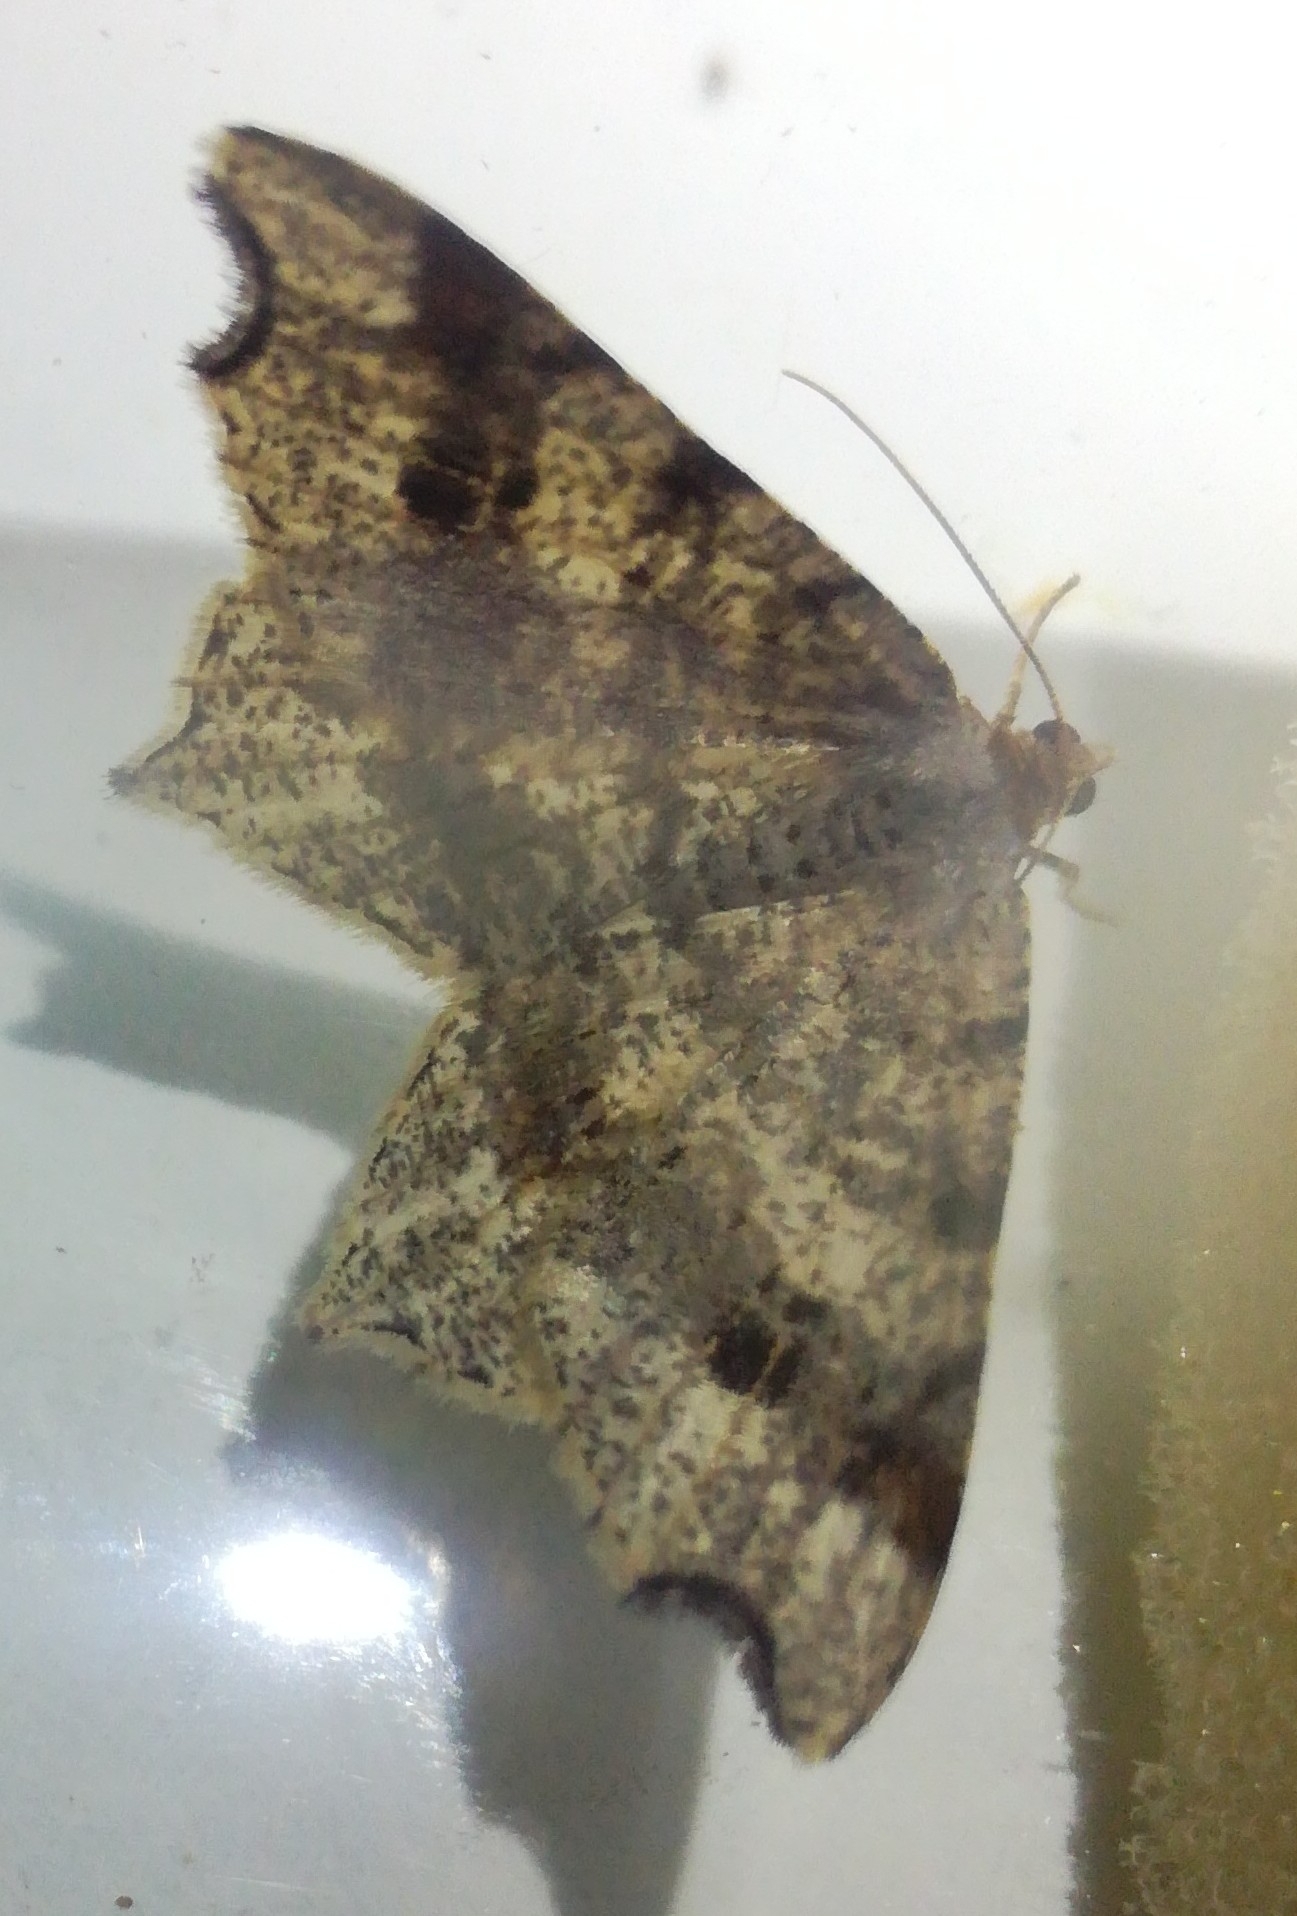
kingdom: Animalia
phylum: Arthropoda
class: Insecta
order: Lepidoptera
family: Geometridae
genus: Macaria
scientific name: Macaria alternata
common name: Sharp-angled peacock
